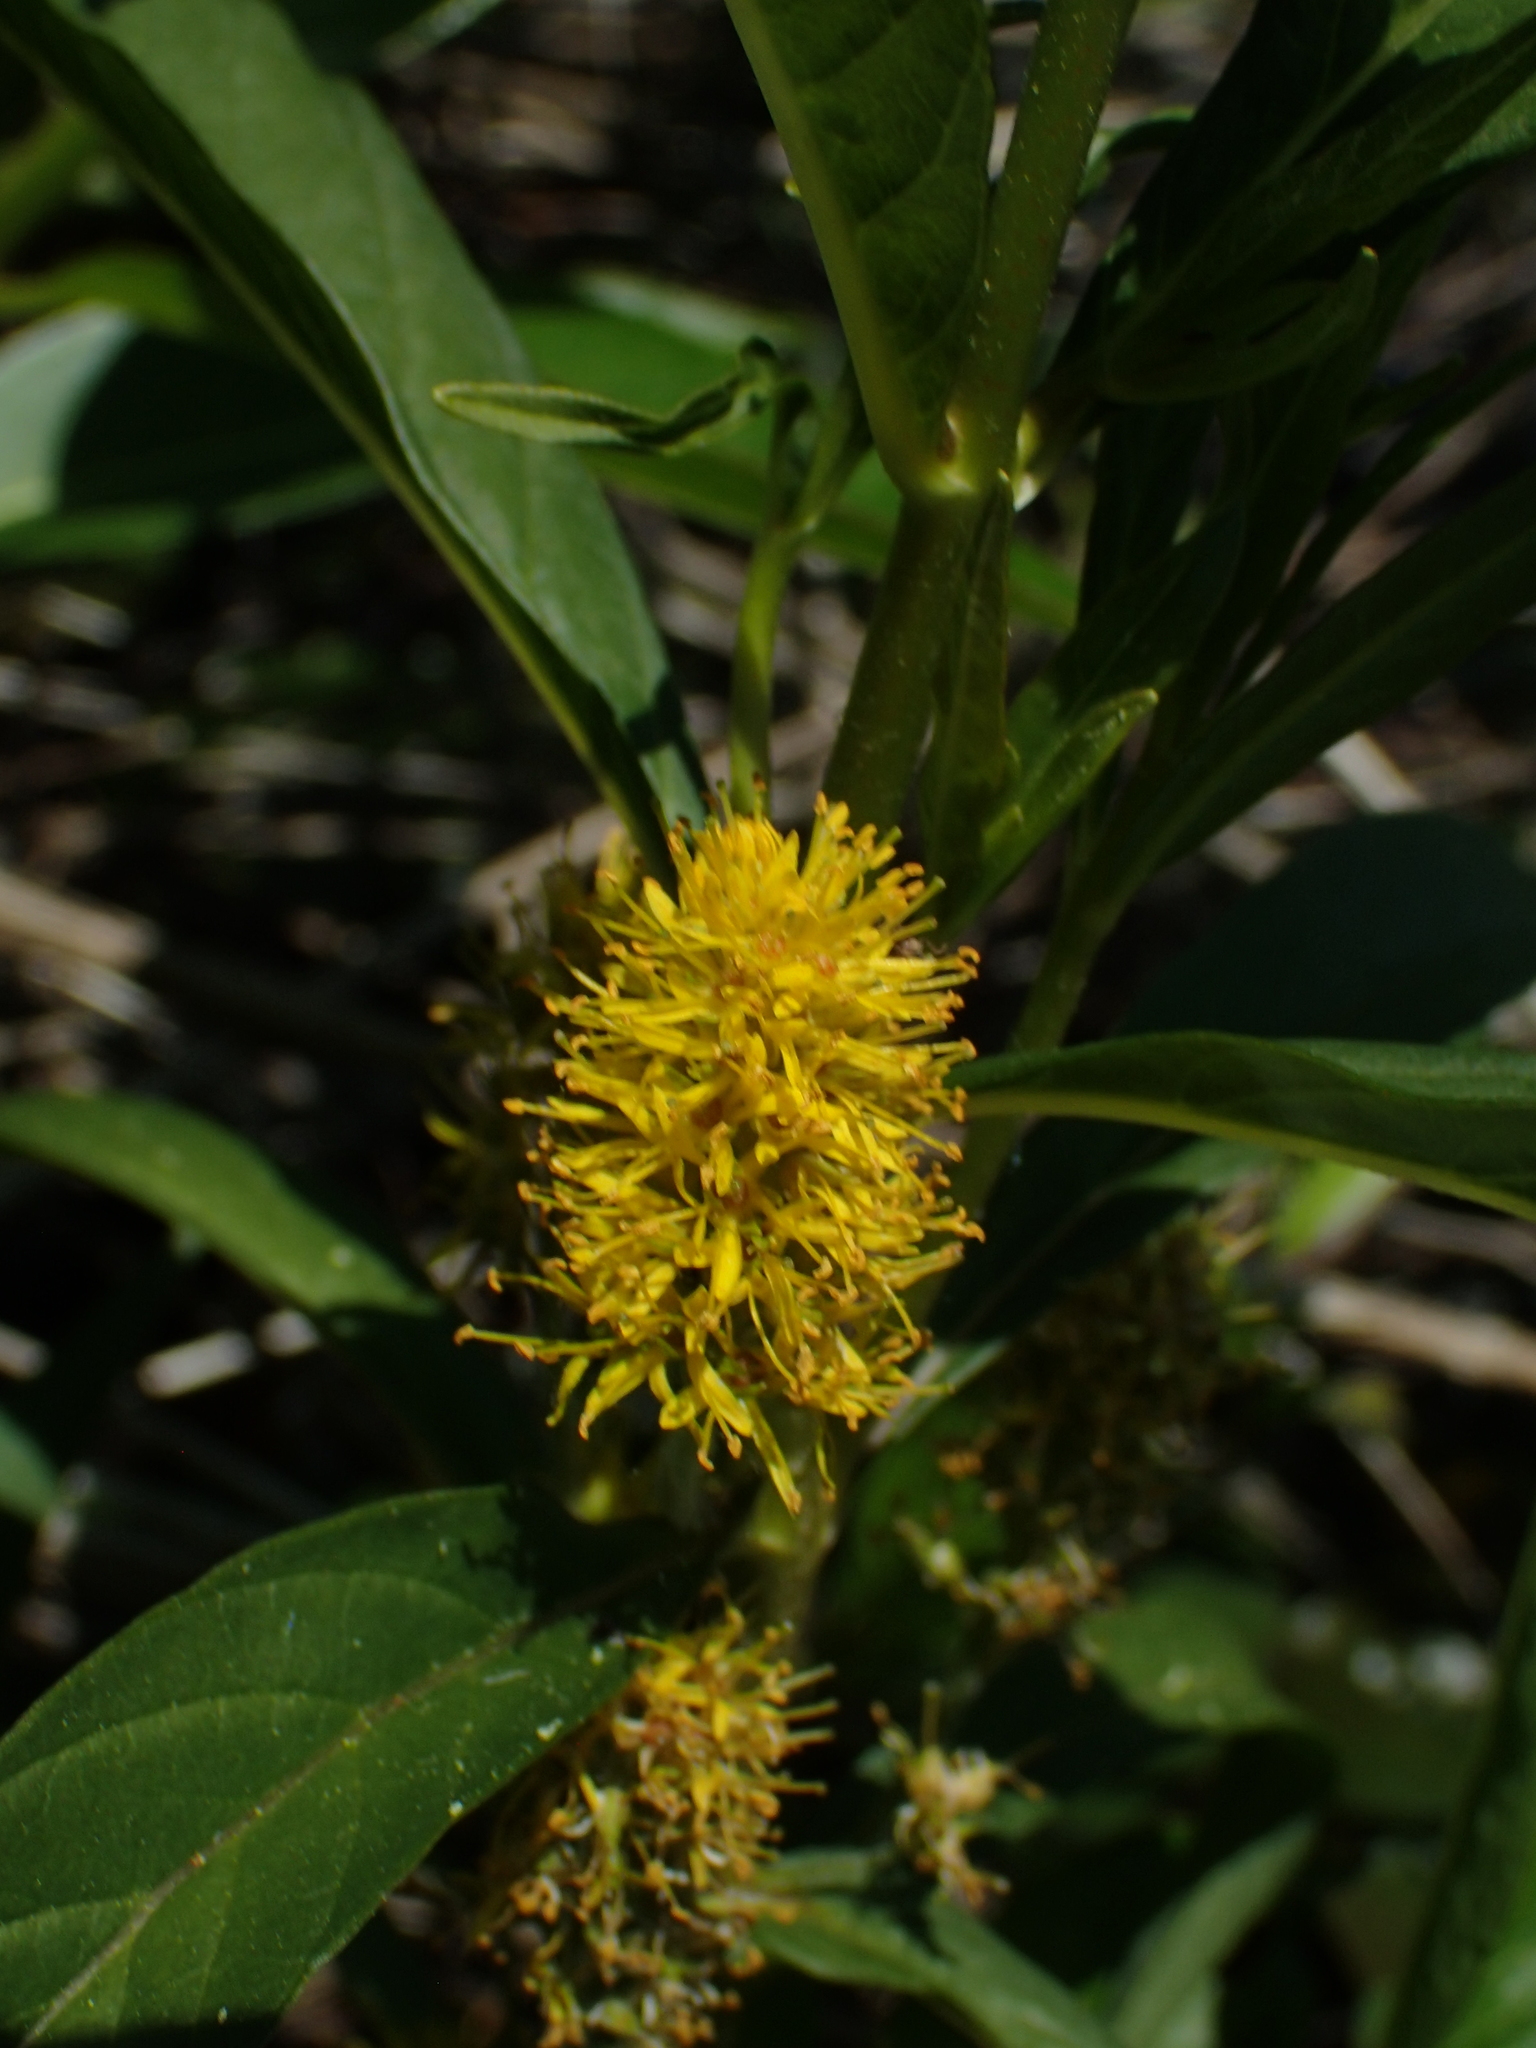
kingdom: Plantae
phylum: Tracheophyta
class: Magnoliopsida
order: Ericales
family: Primulaceae
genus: Lysimachia
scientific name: Lysimachia thyrsiflora
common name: Tufted loosestrife
